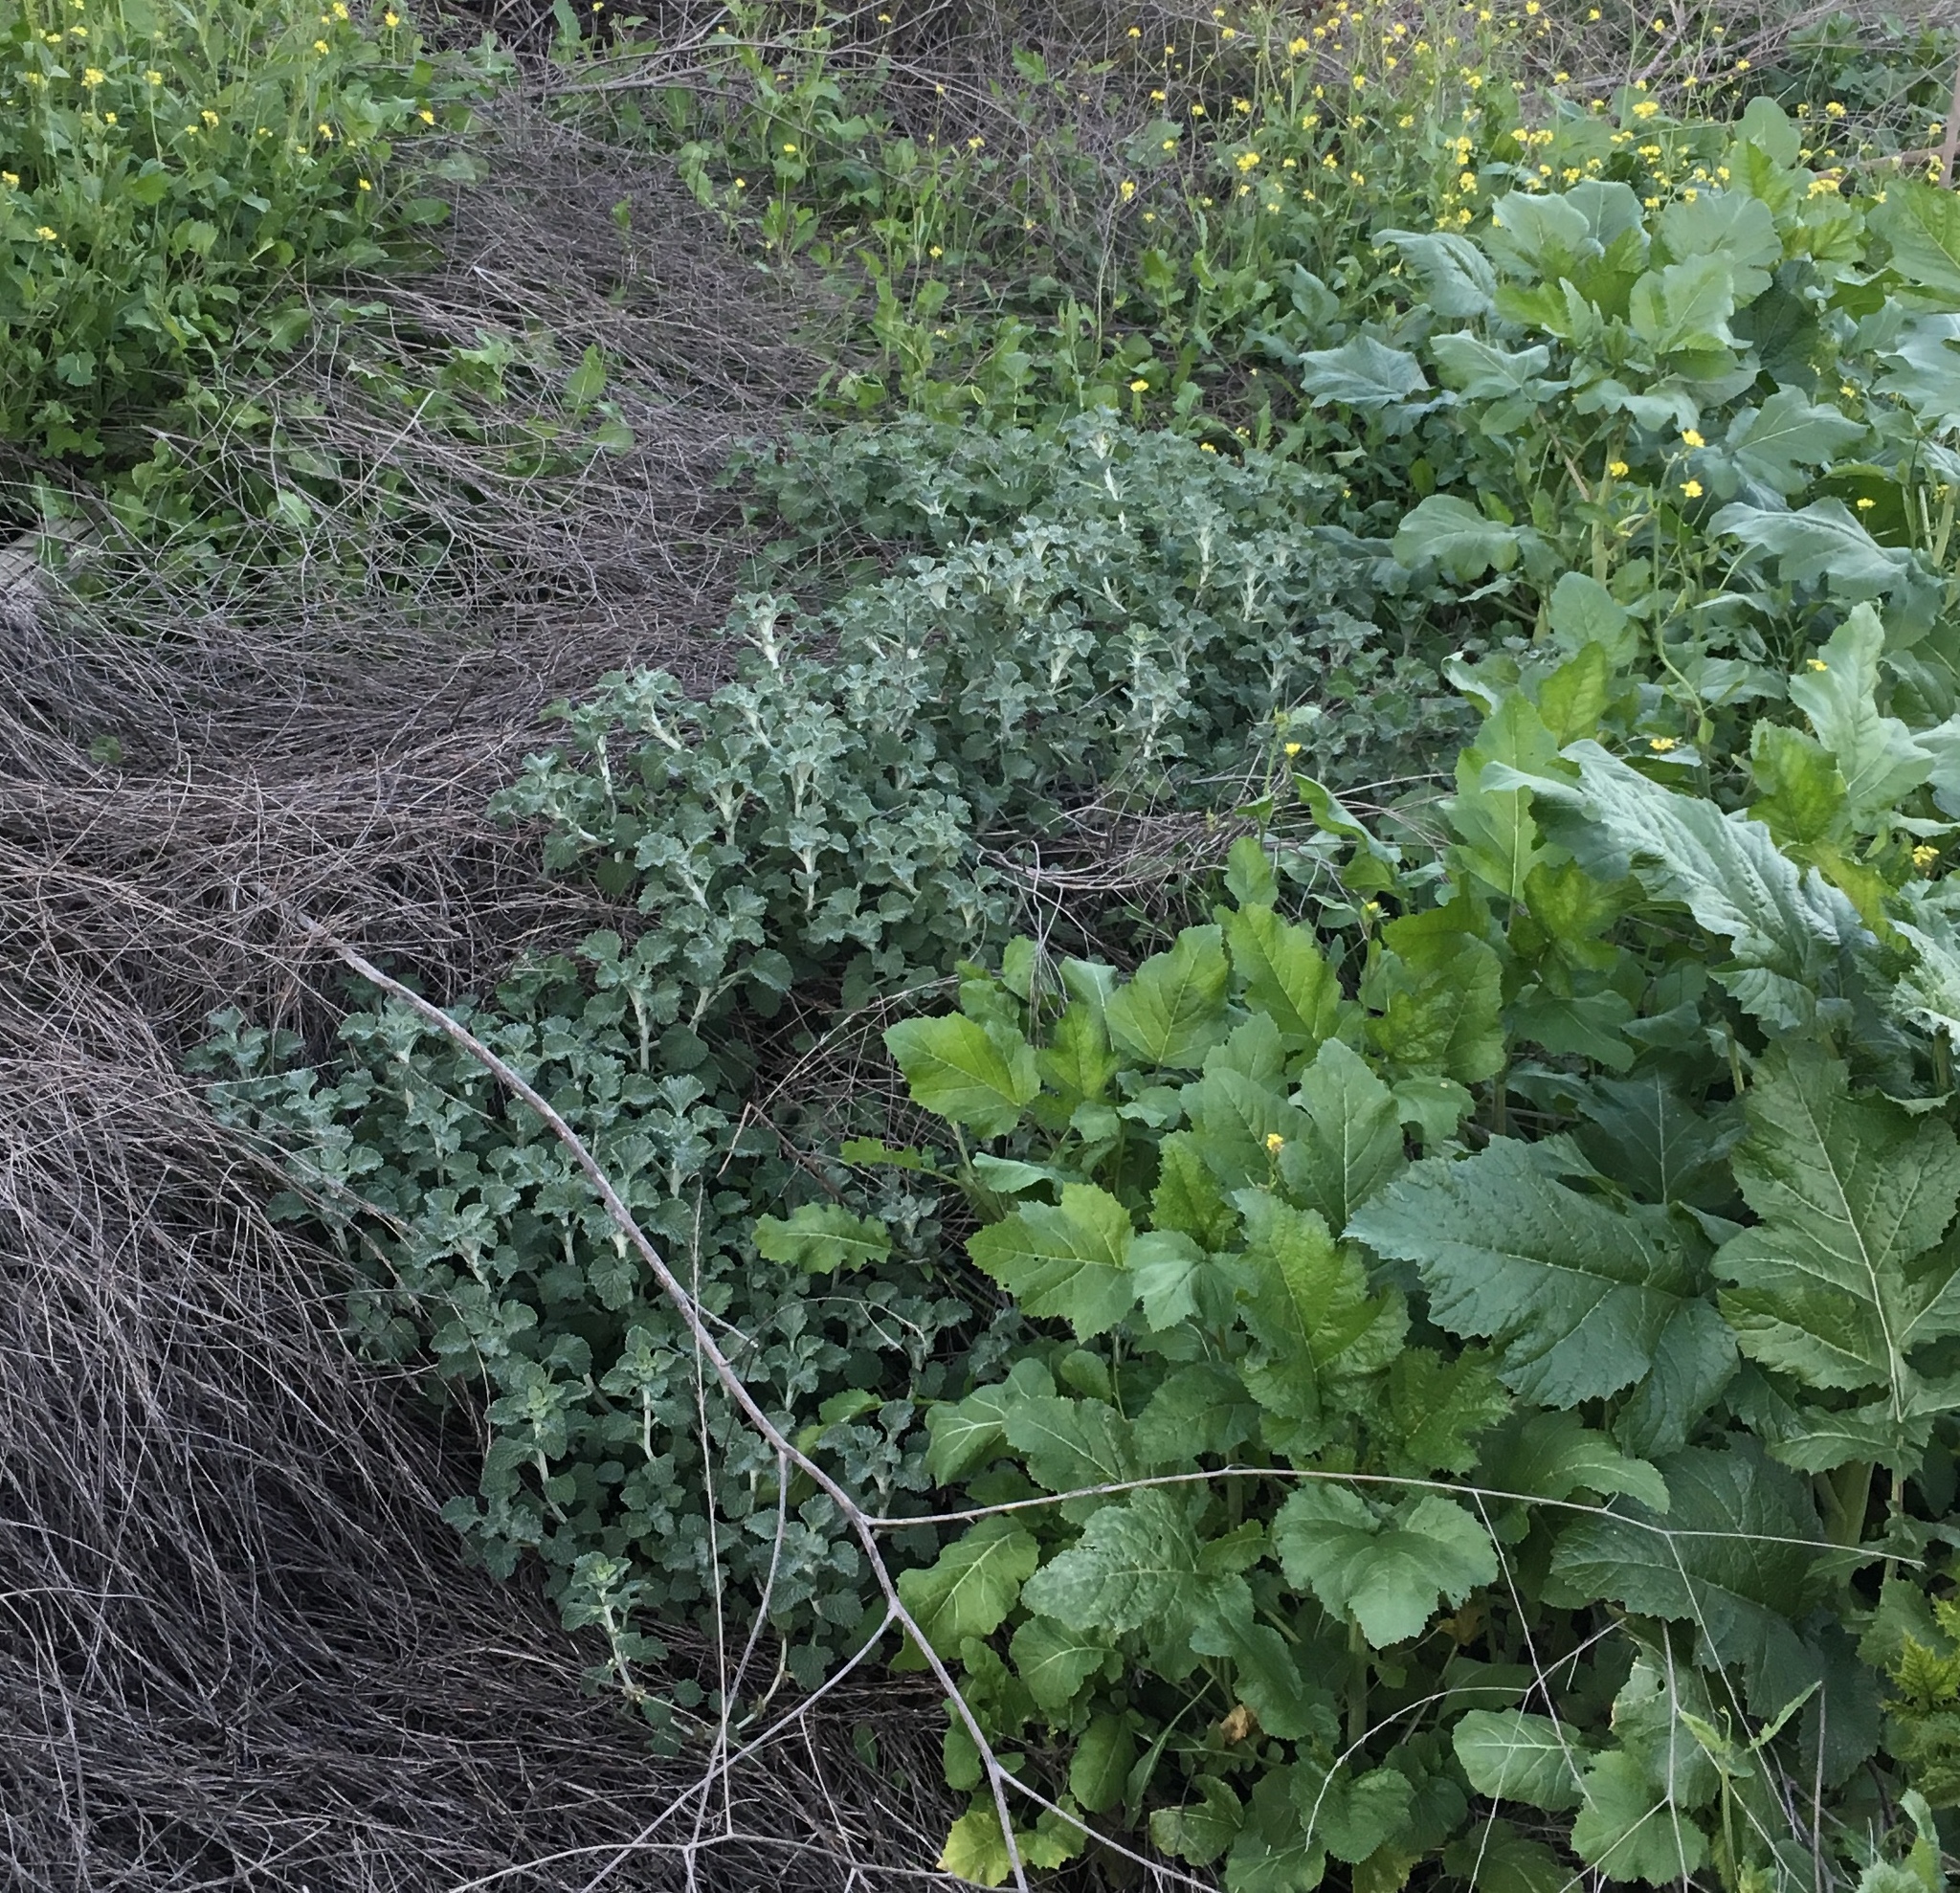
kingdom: Plantae
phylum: Tracheophyta
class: Magnoliopsida
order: Lamiales
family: Lamiaceae
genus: Marrubium
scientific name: Marrubium vulgare
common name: Horehound
